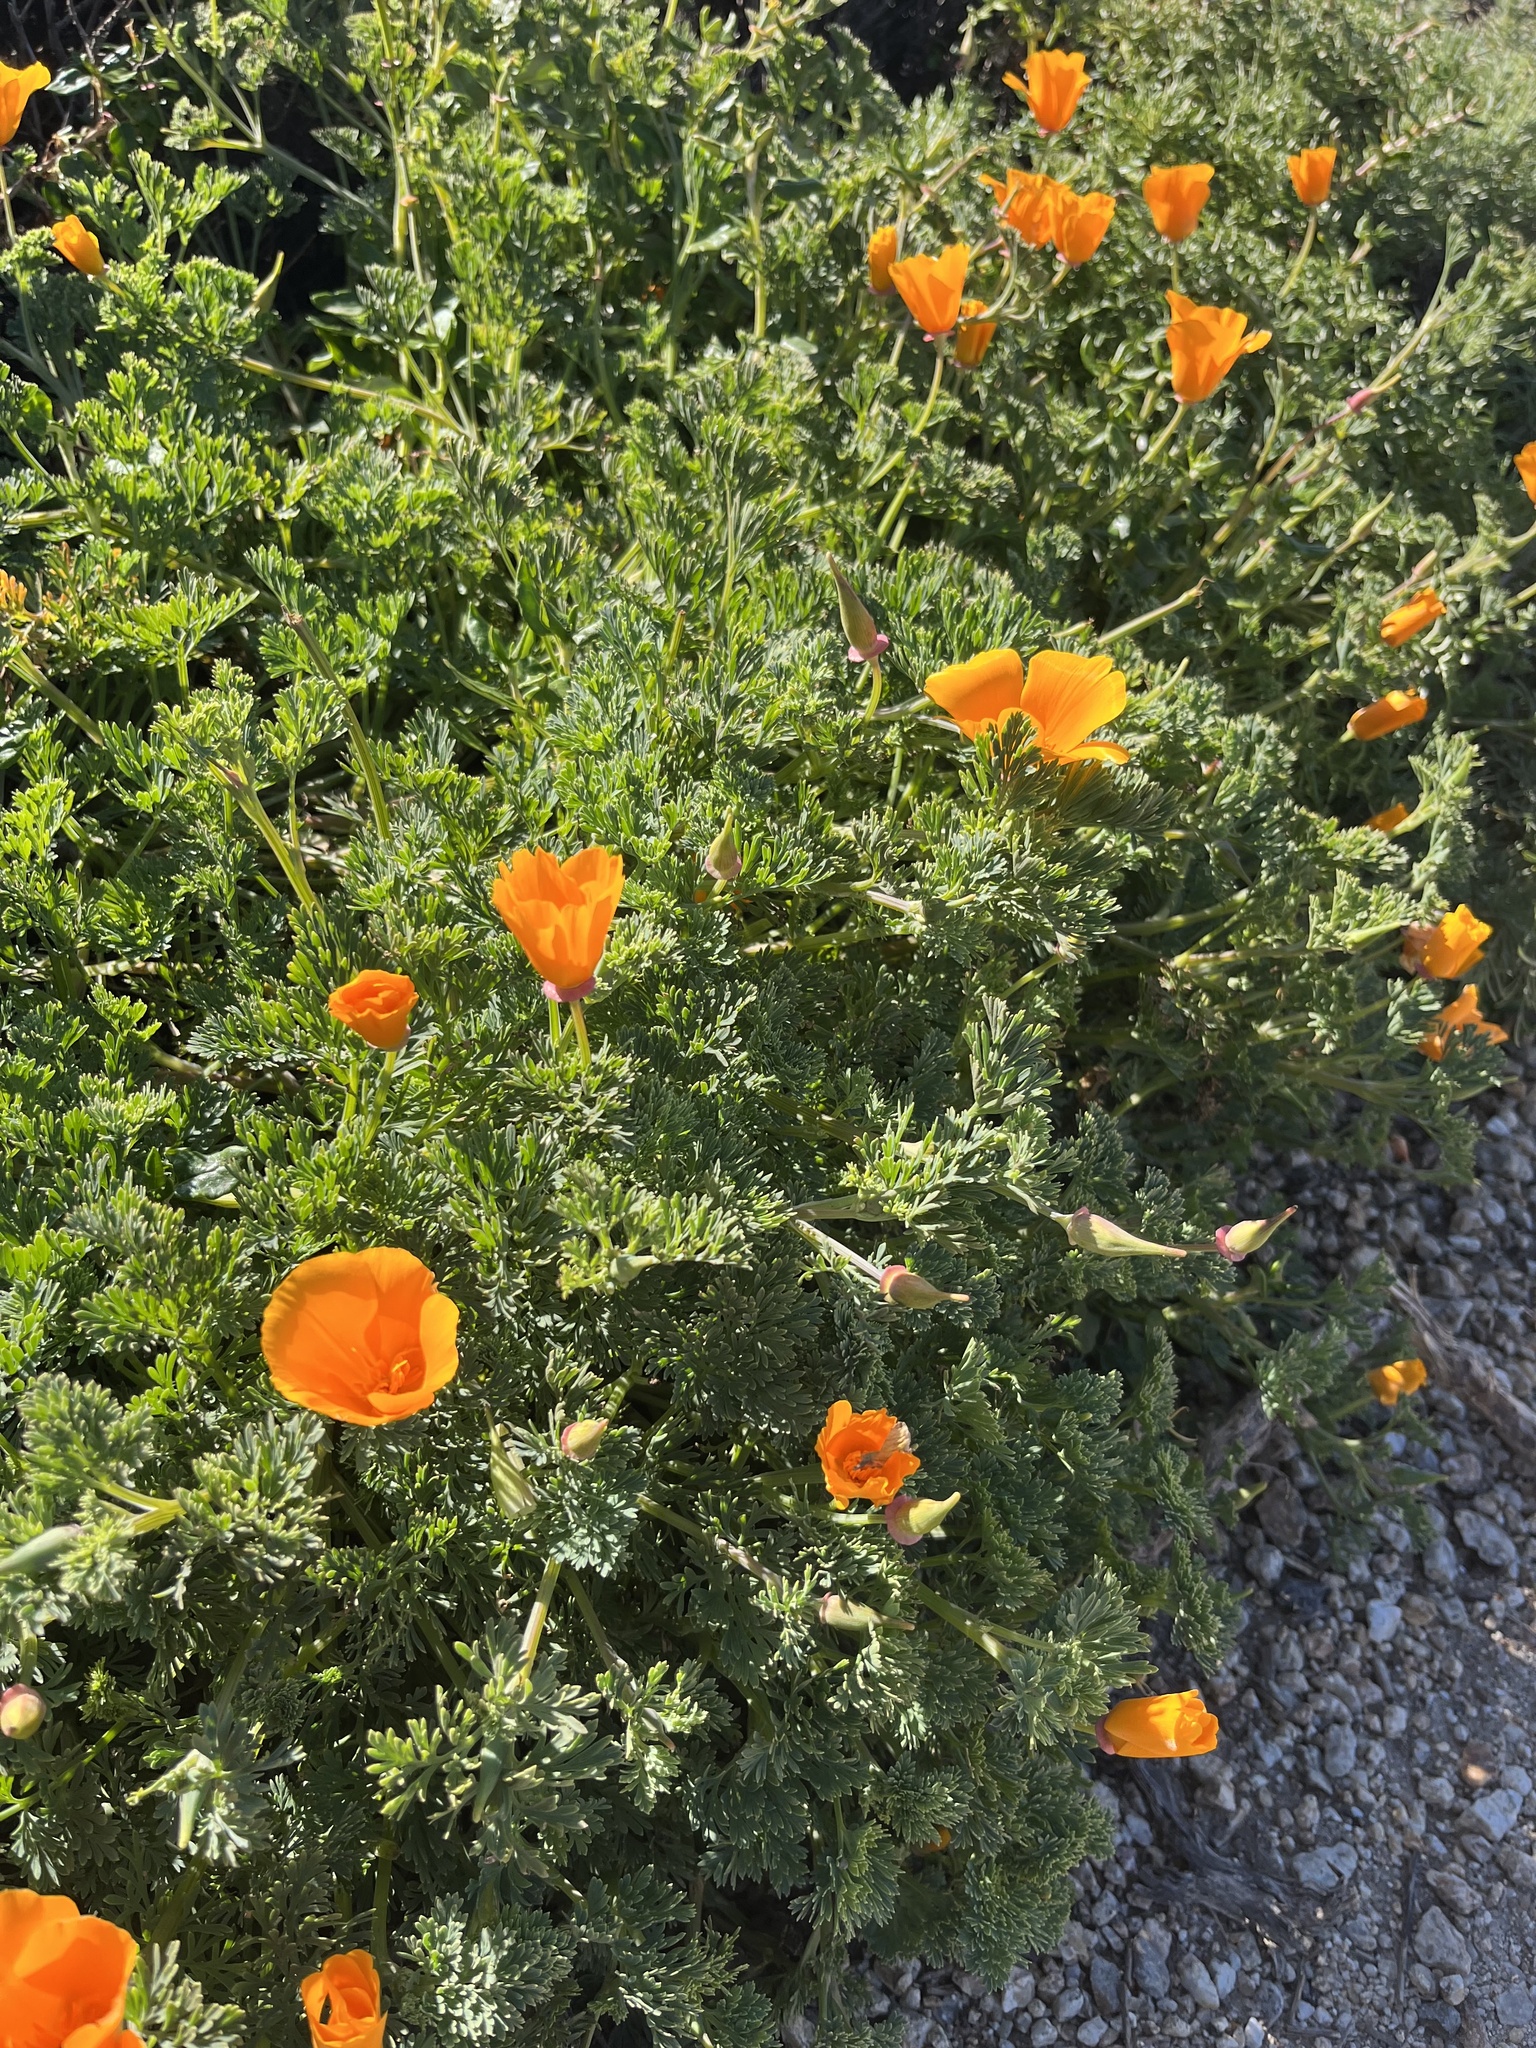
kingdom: Plantae
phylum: Tracheophyta
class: Magnoliopsida
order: Ranunculales
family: Papaveraceae
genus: Eschscholzia
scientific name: Eschscholzia californica
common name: California poppy
